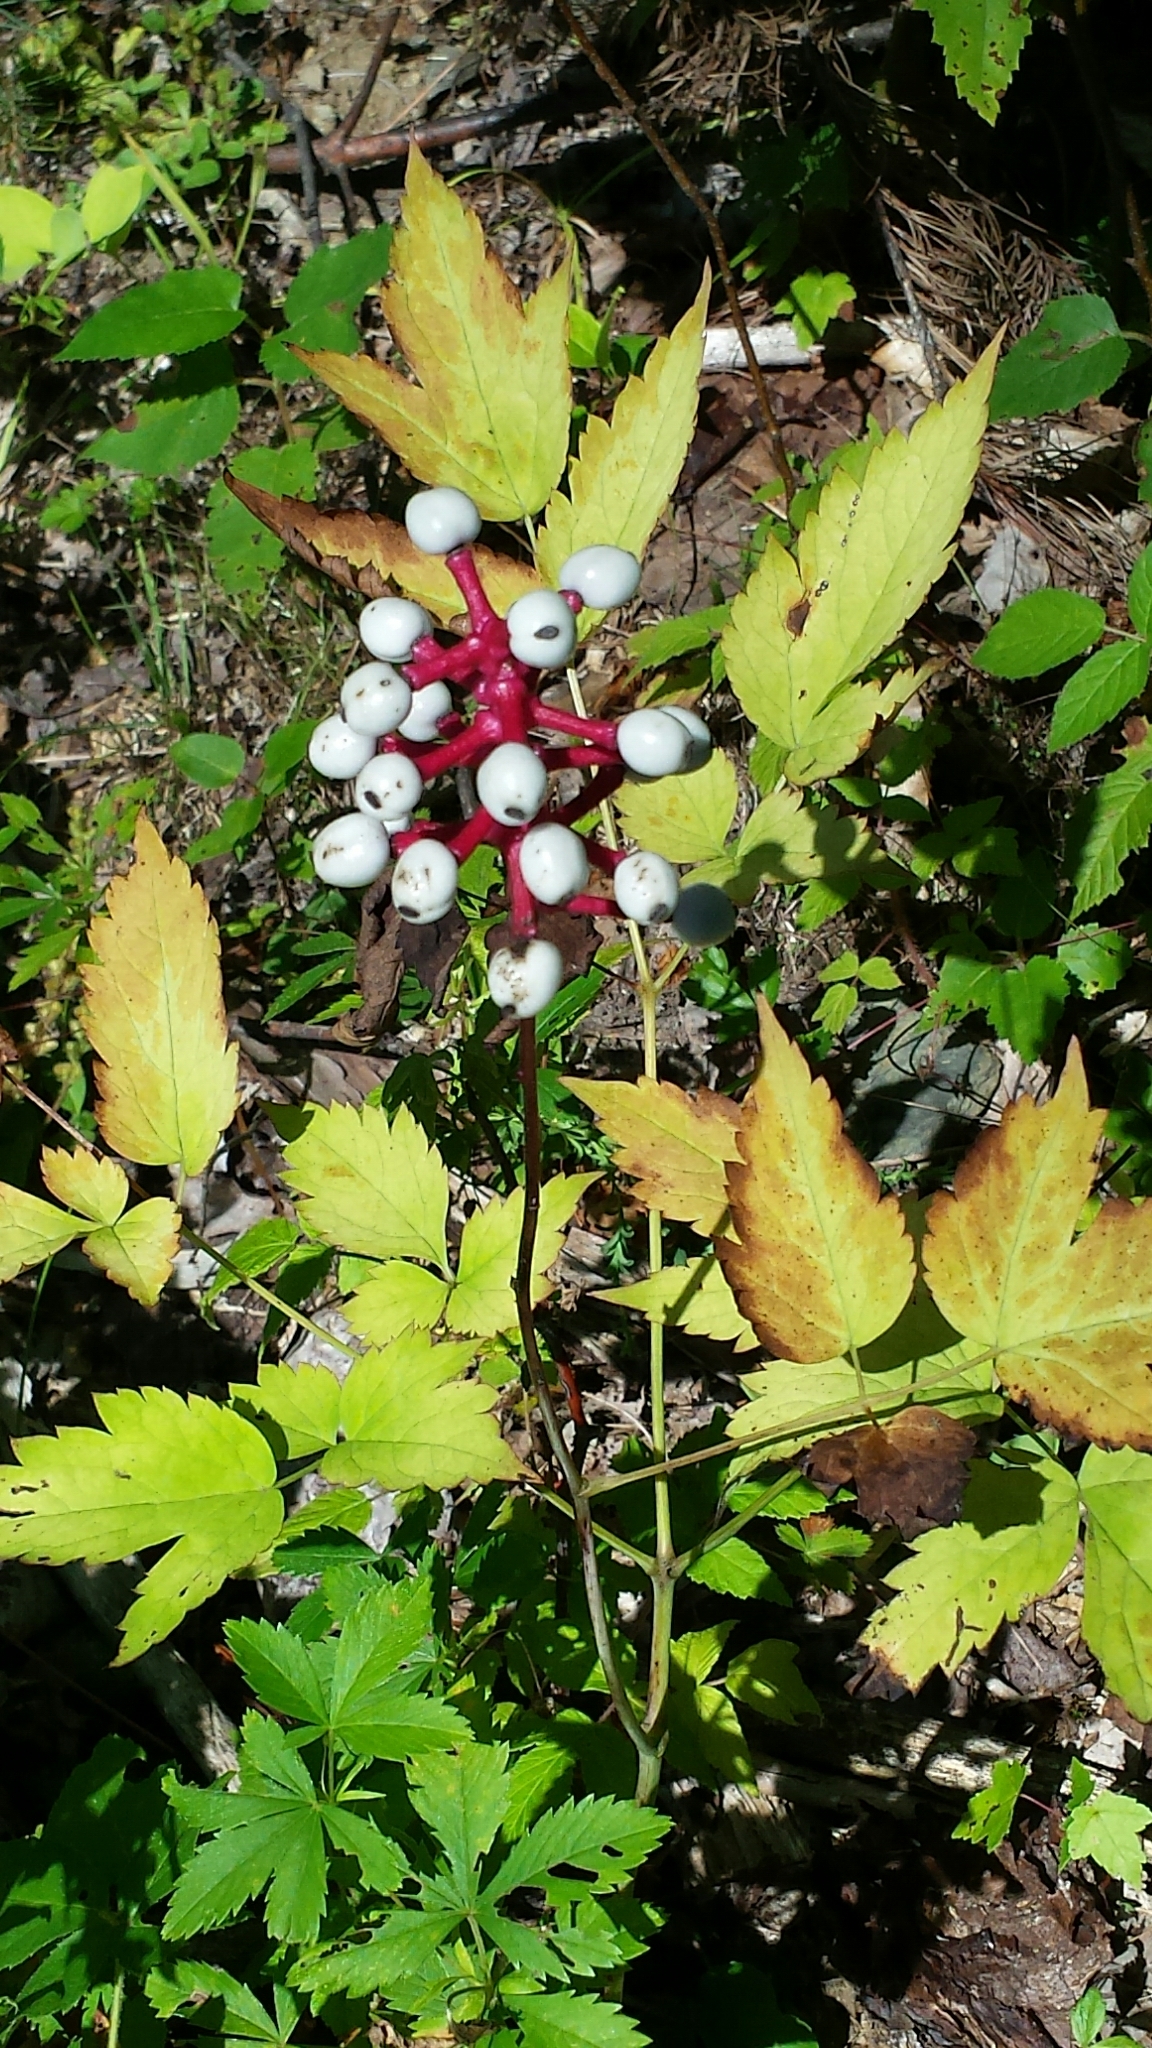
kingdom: Plantae
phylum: Tracheophyta
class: Magnoliopsida
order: Ranunculales
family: Ranunculaceae
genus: Actaea
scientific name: Actaea pachypoda
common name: Doll's-eyes
